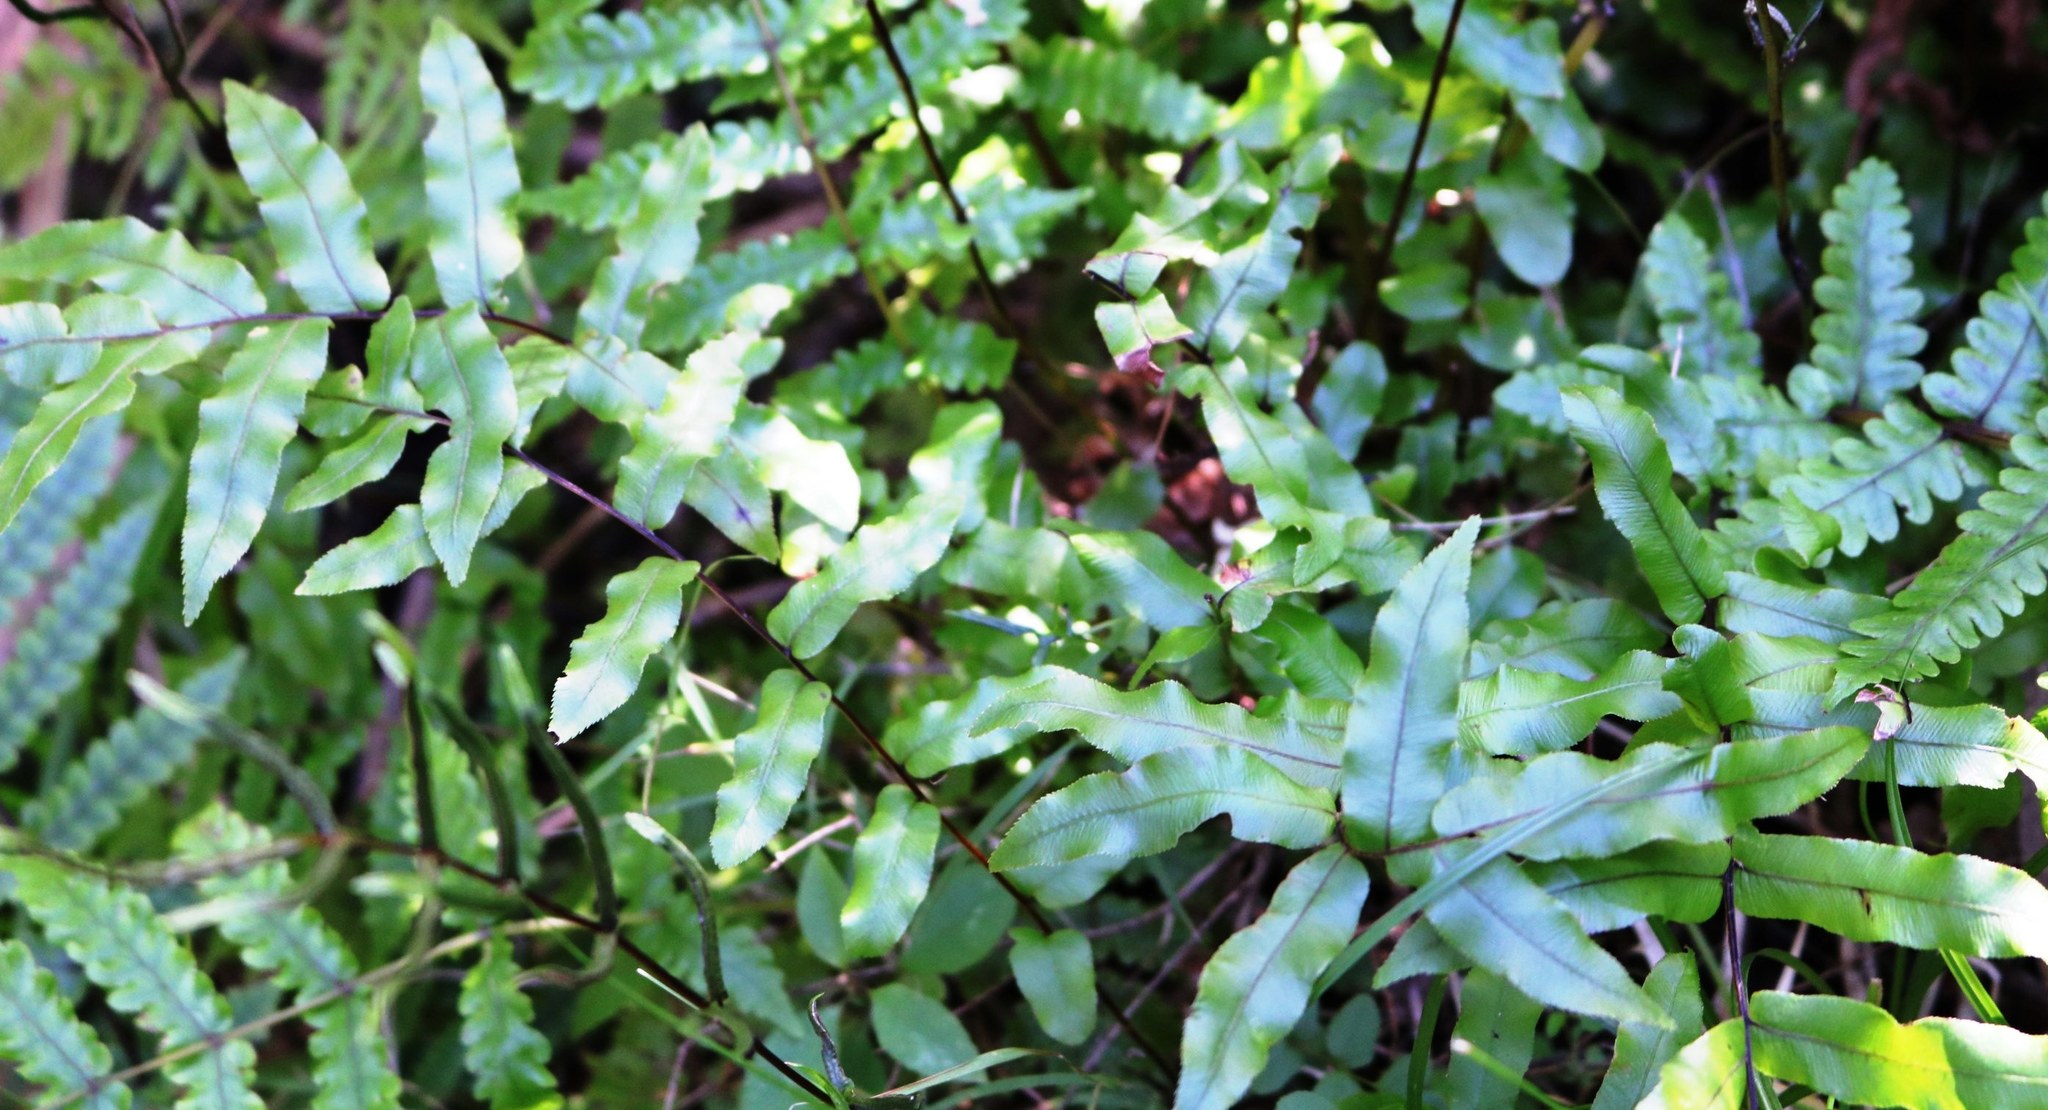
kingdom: Plantae
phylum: Tracheophyta
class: Polypodiopsida
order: Polypodiales
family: Blechnaceae
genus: Parablechnum
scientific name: Parablechnum minus
